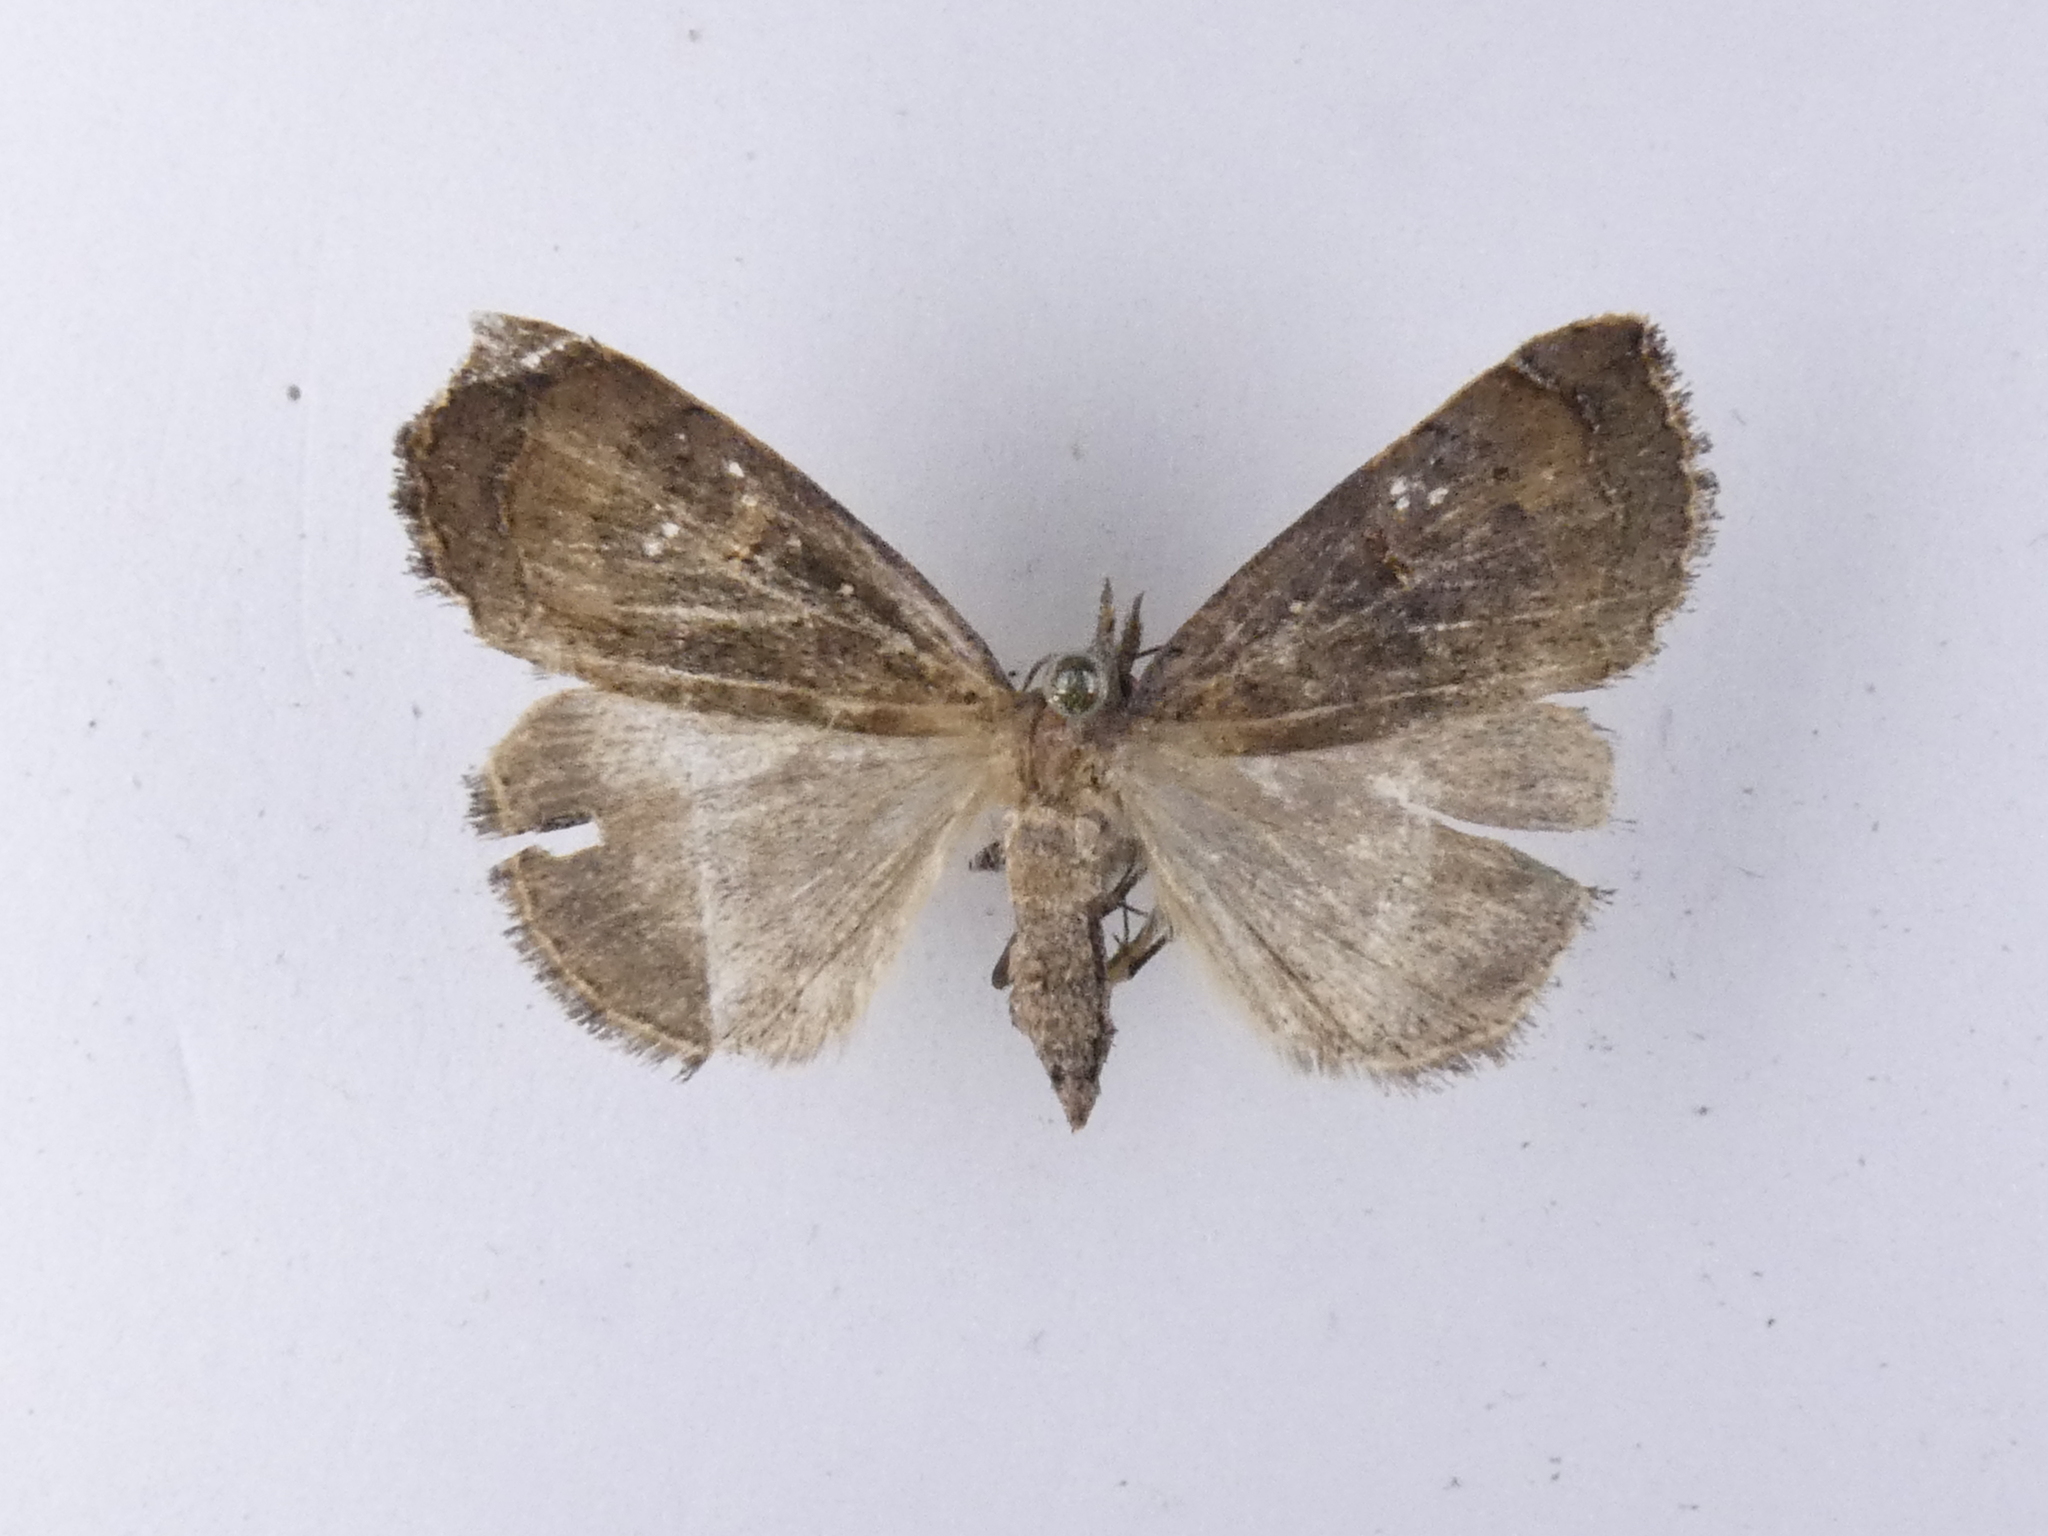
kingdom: Animalia
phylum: Arthropoda
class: Insecta
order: Lepidoptera
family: Erebidae
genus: Rhapsa
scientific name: Rhapsa scotosialis
